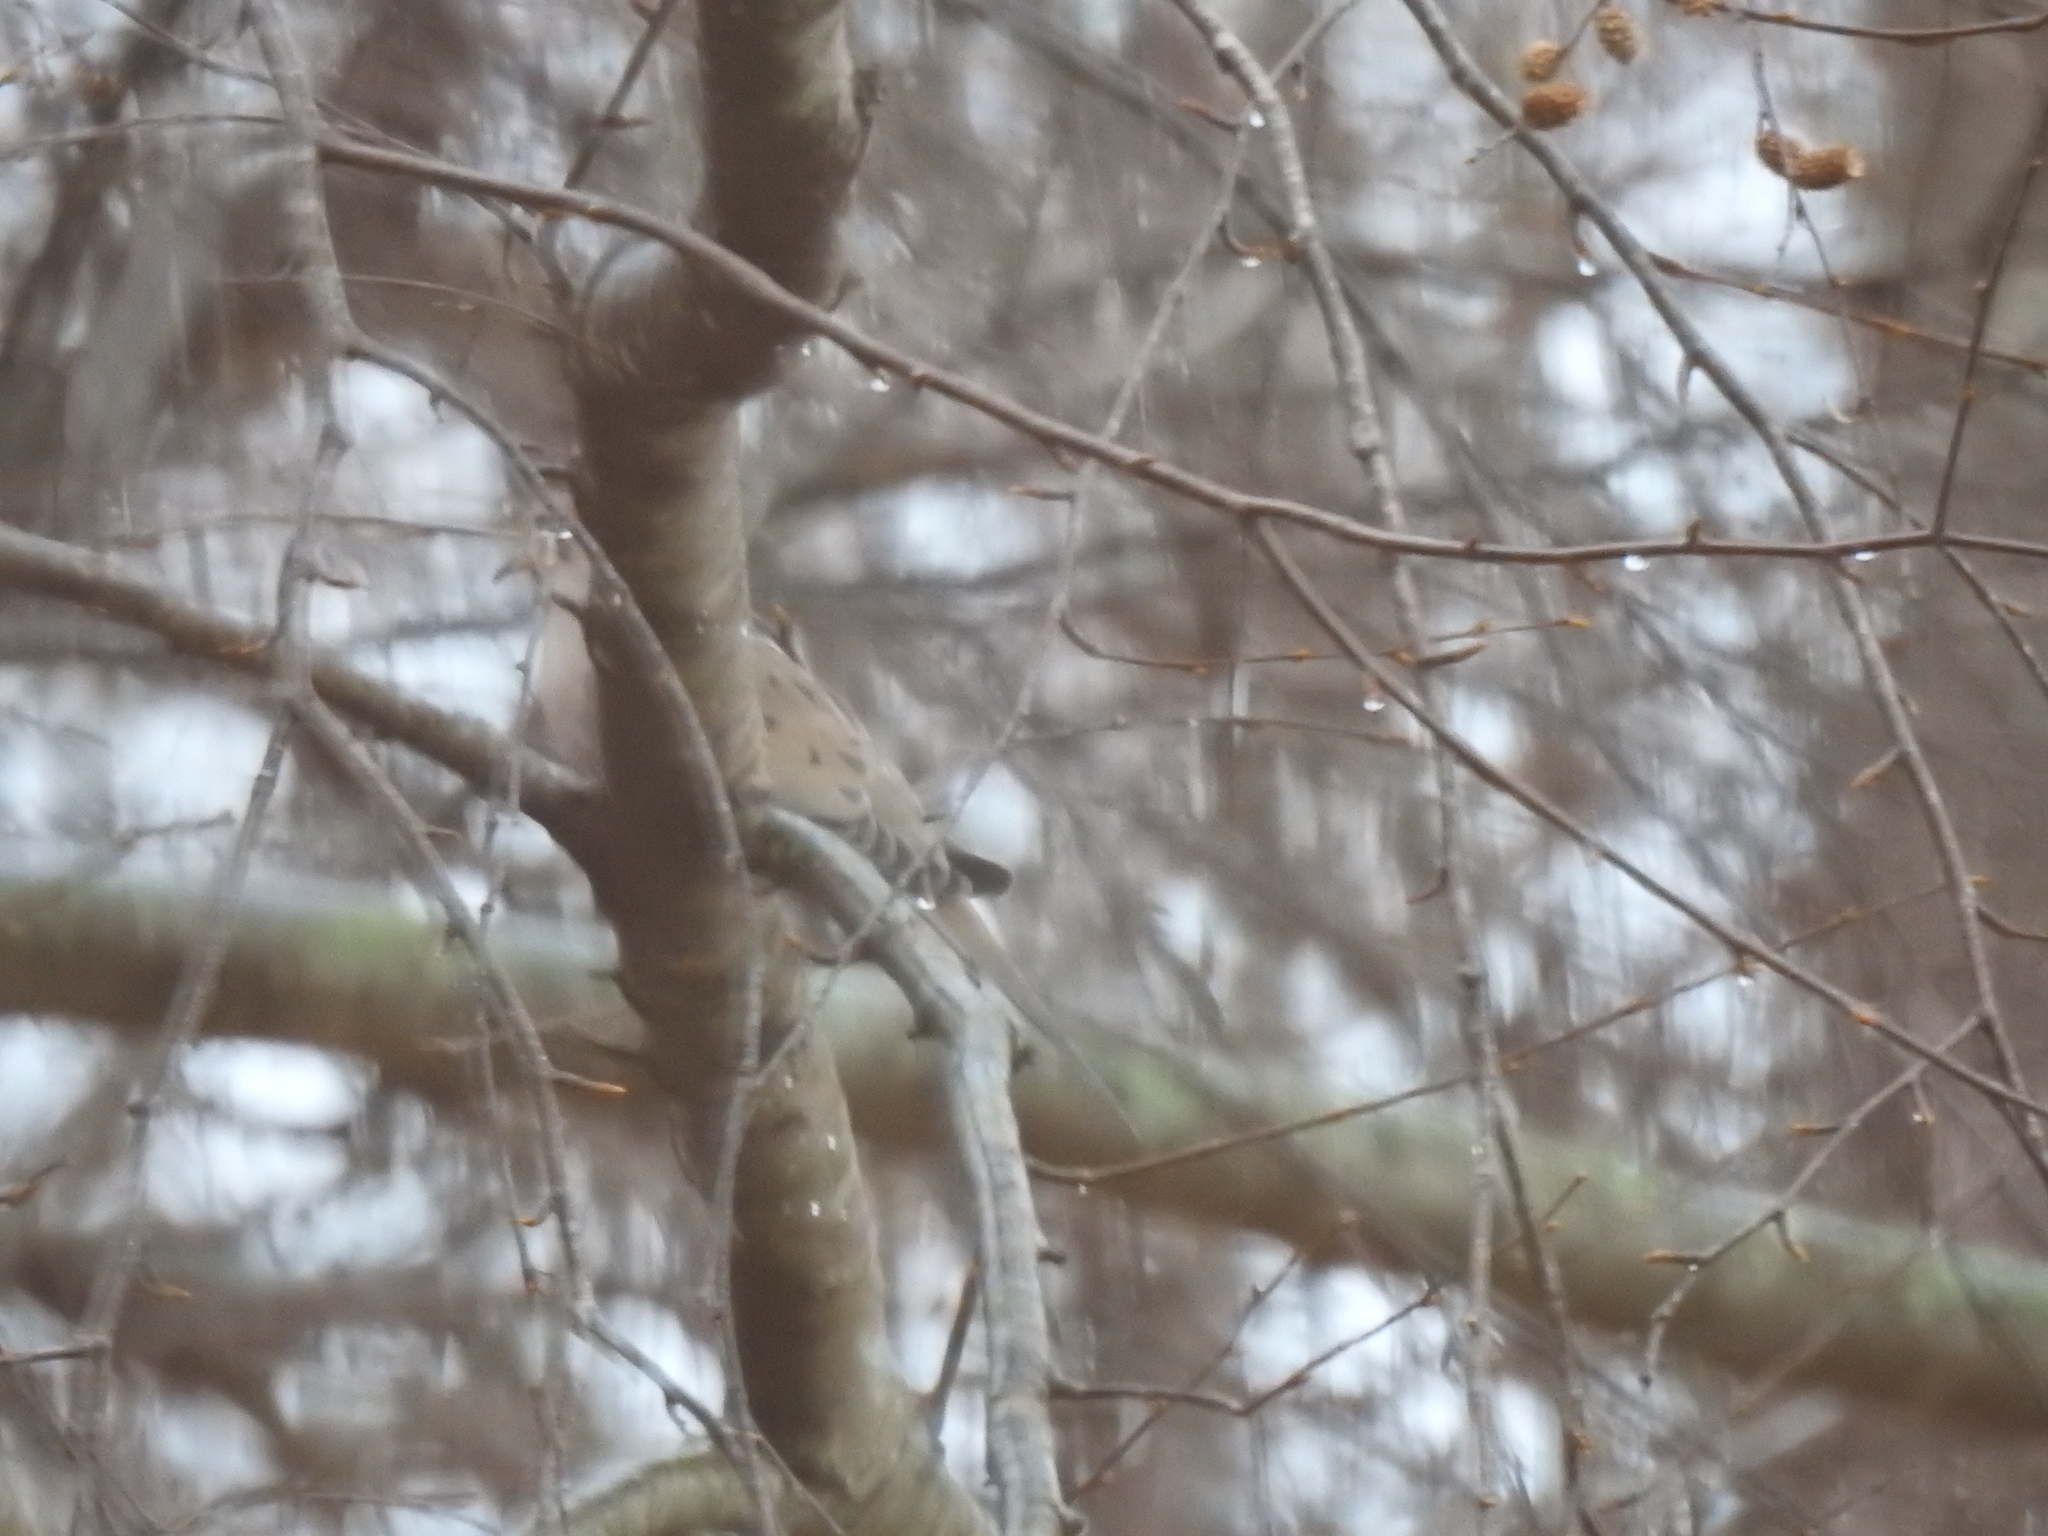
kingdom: Animalia
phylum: Chordata
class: Aves
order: Columbiformes
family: Columbidae
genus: Zenaida
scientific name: Zenaida macroura
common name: Mourning dove
